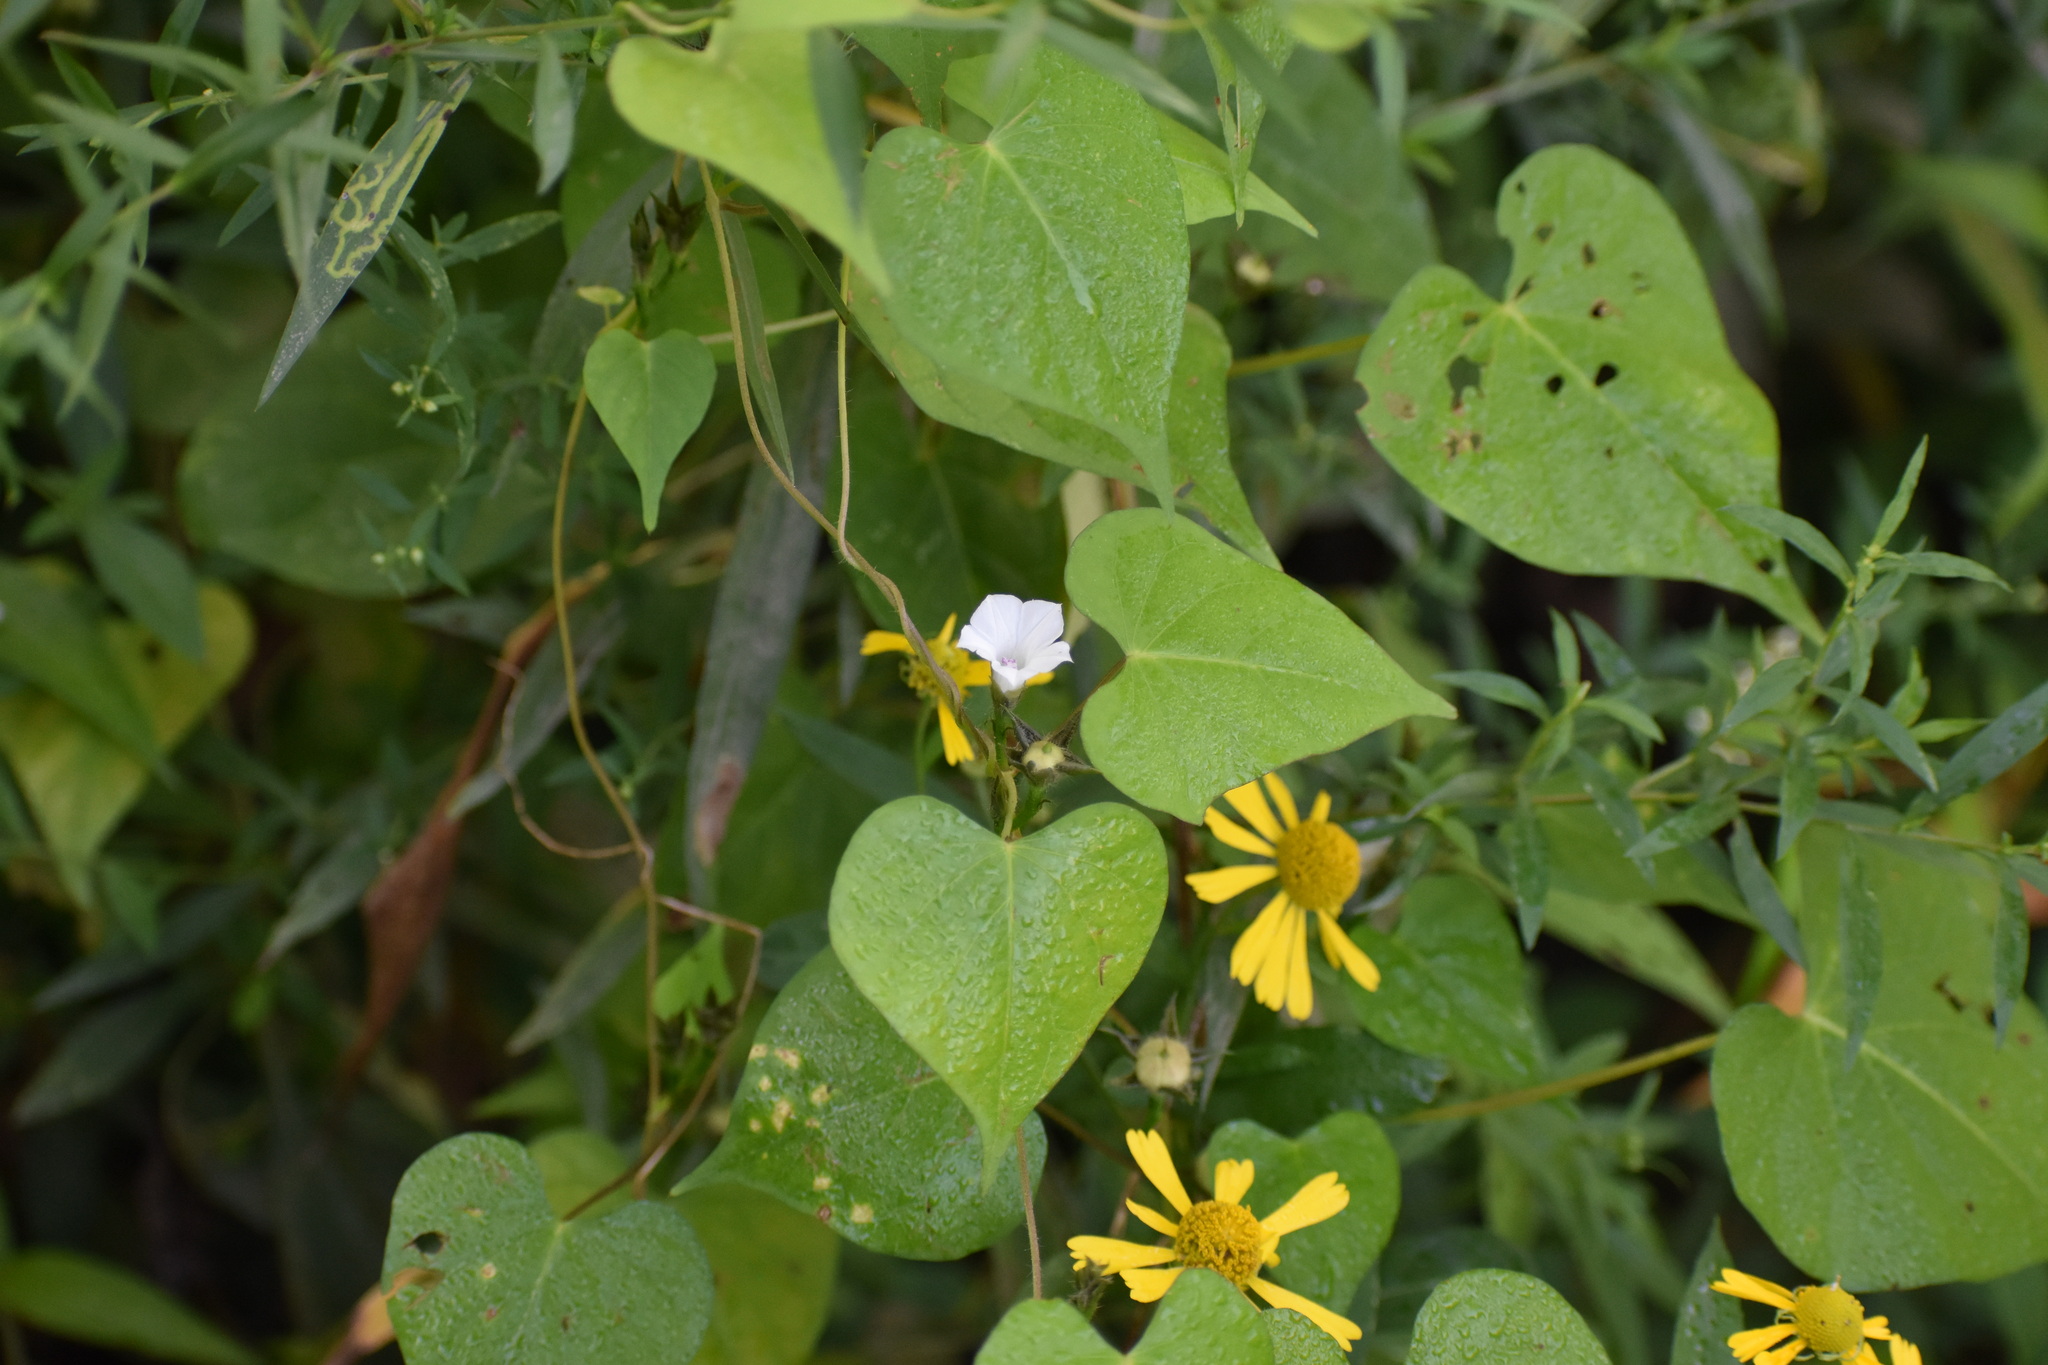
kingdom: Plantae
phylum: Tracheophyta
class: Magnoliopsida
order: Solanales
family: Convolvulaceae
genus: Ipomoea
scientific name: Ipomoea lacunosa
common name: White morning-glory
